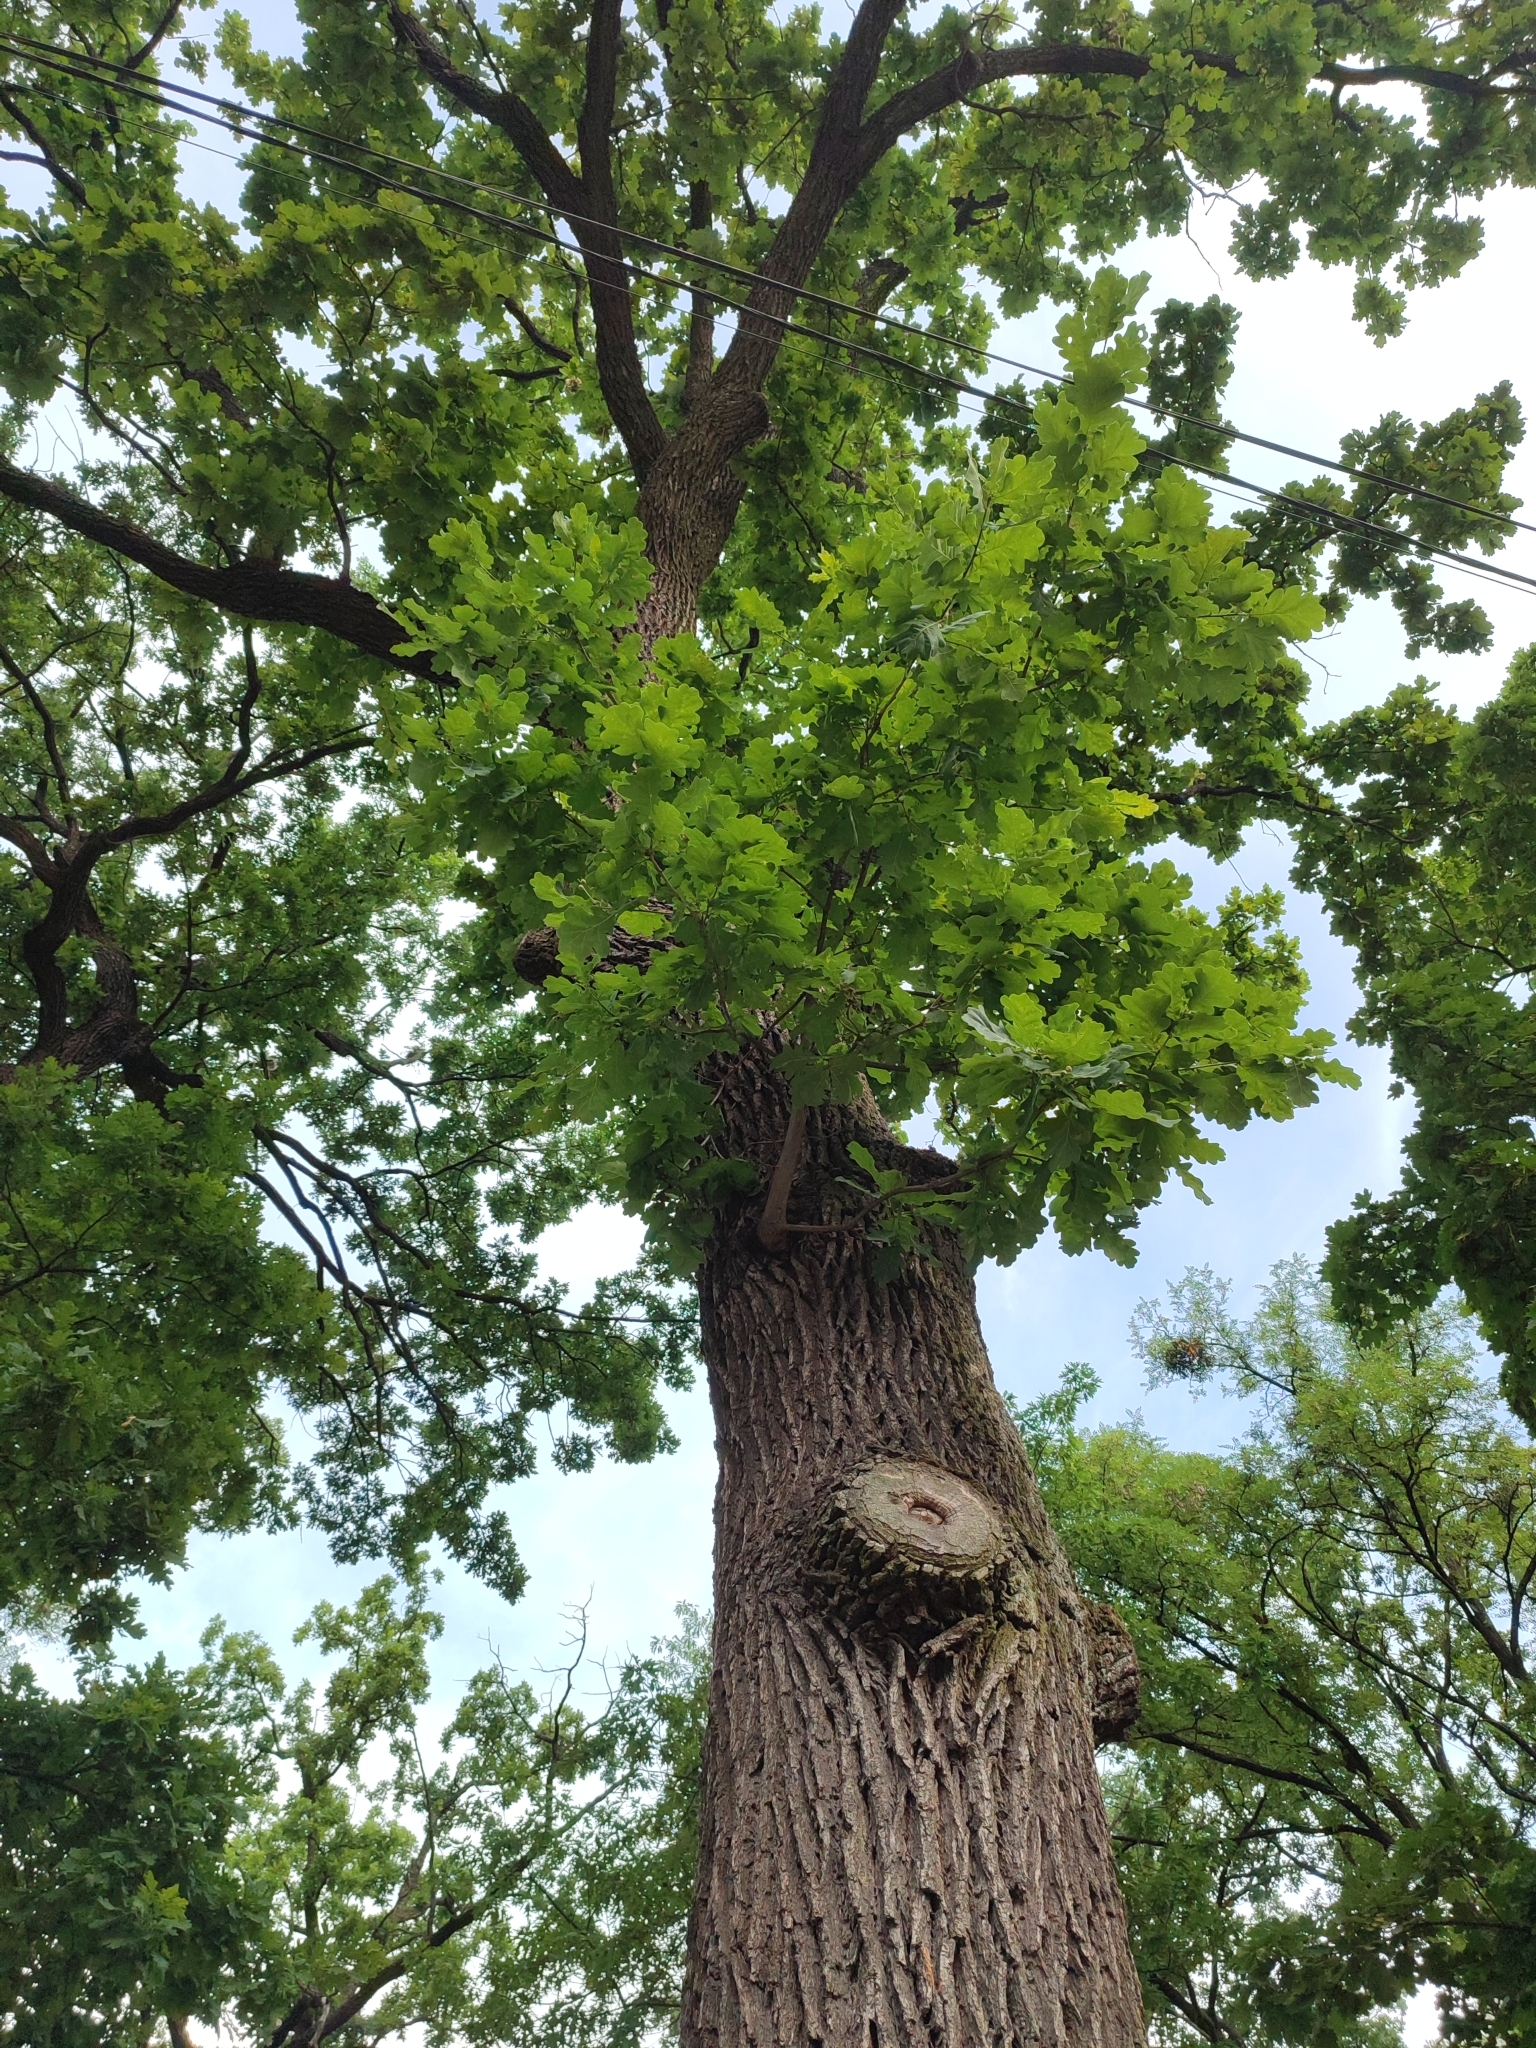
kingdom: Plantae
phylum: Tracheophyta
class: Magnoliopsida
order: Fagales
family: Fagaceae
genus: Quercus
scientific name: Quercus robur
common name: Pedunculate oak
